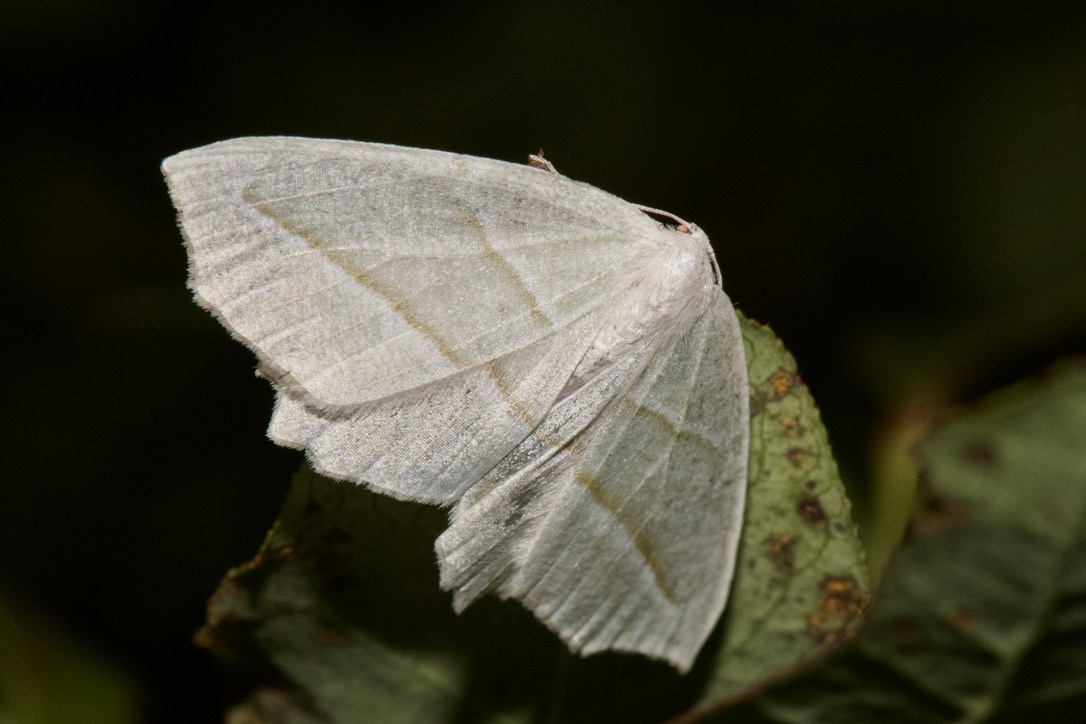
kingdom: Animalia
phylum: Arthropoda
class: Insecta
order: Lepidoptera
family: Geometridae
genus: Campaea
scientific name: Campaea perlata
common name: Fringed looper
